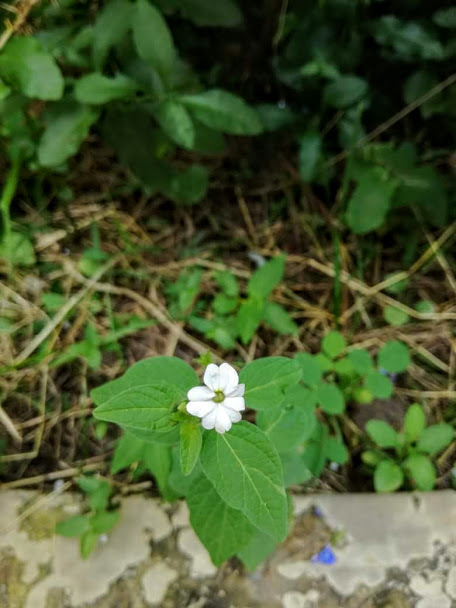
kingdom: Plantae
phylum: Tracheophyta
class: Magnoliopsida
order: Solanales
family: Solanaceae
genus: Browallia
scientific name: Browallia americana
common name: Jamaican forget-me-not
